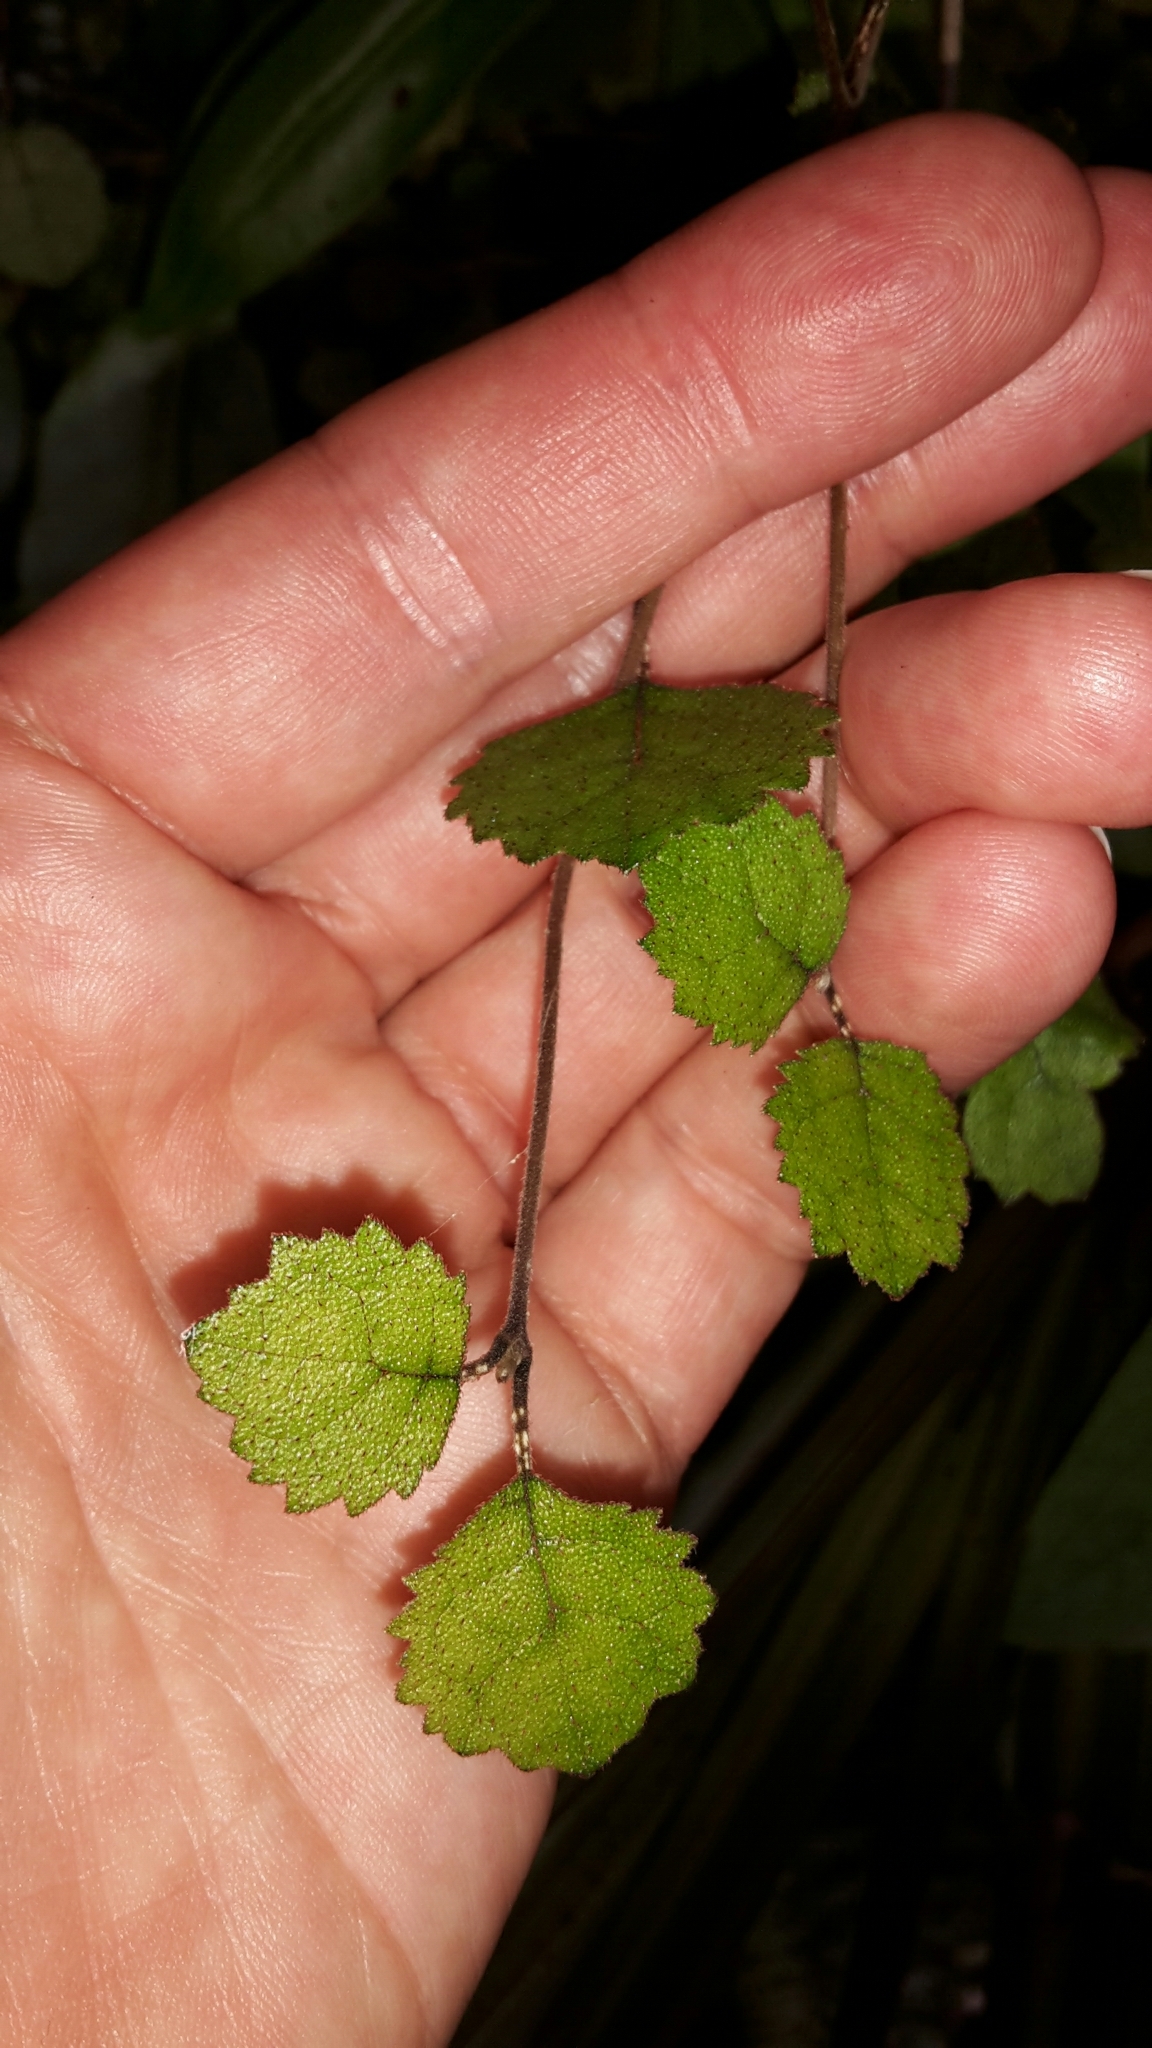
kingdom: Plantae
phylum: Tracheophyta
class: Magnoliopsida
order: Lamiales
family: Gesneriaceae
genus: Rhabdothamnus
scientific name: Rhabdothamnus solandri
